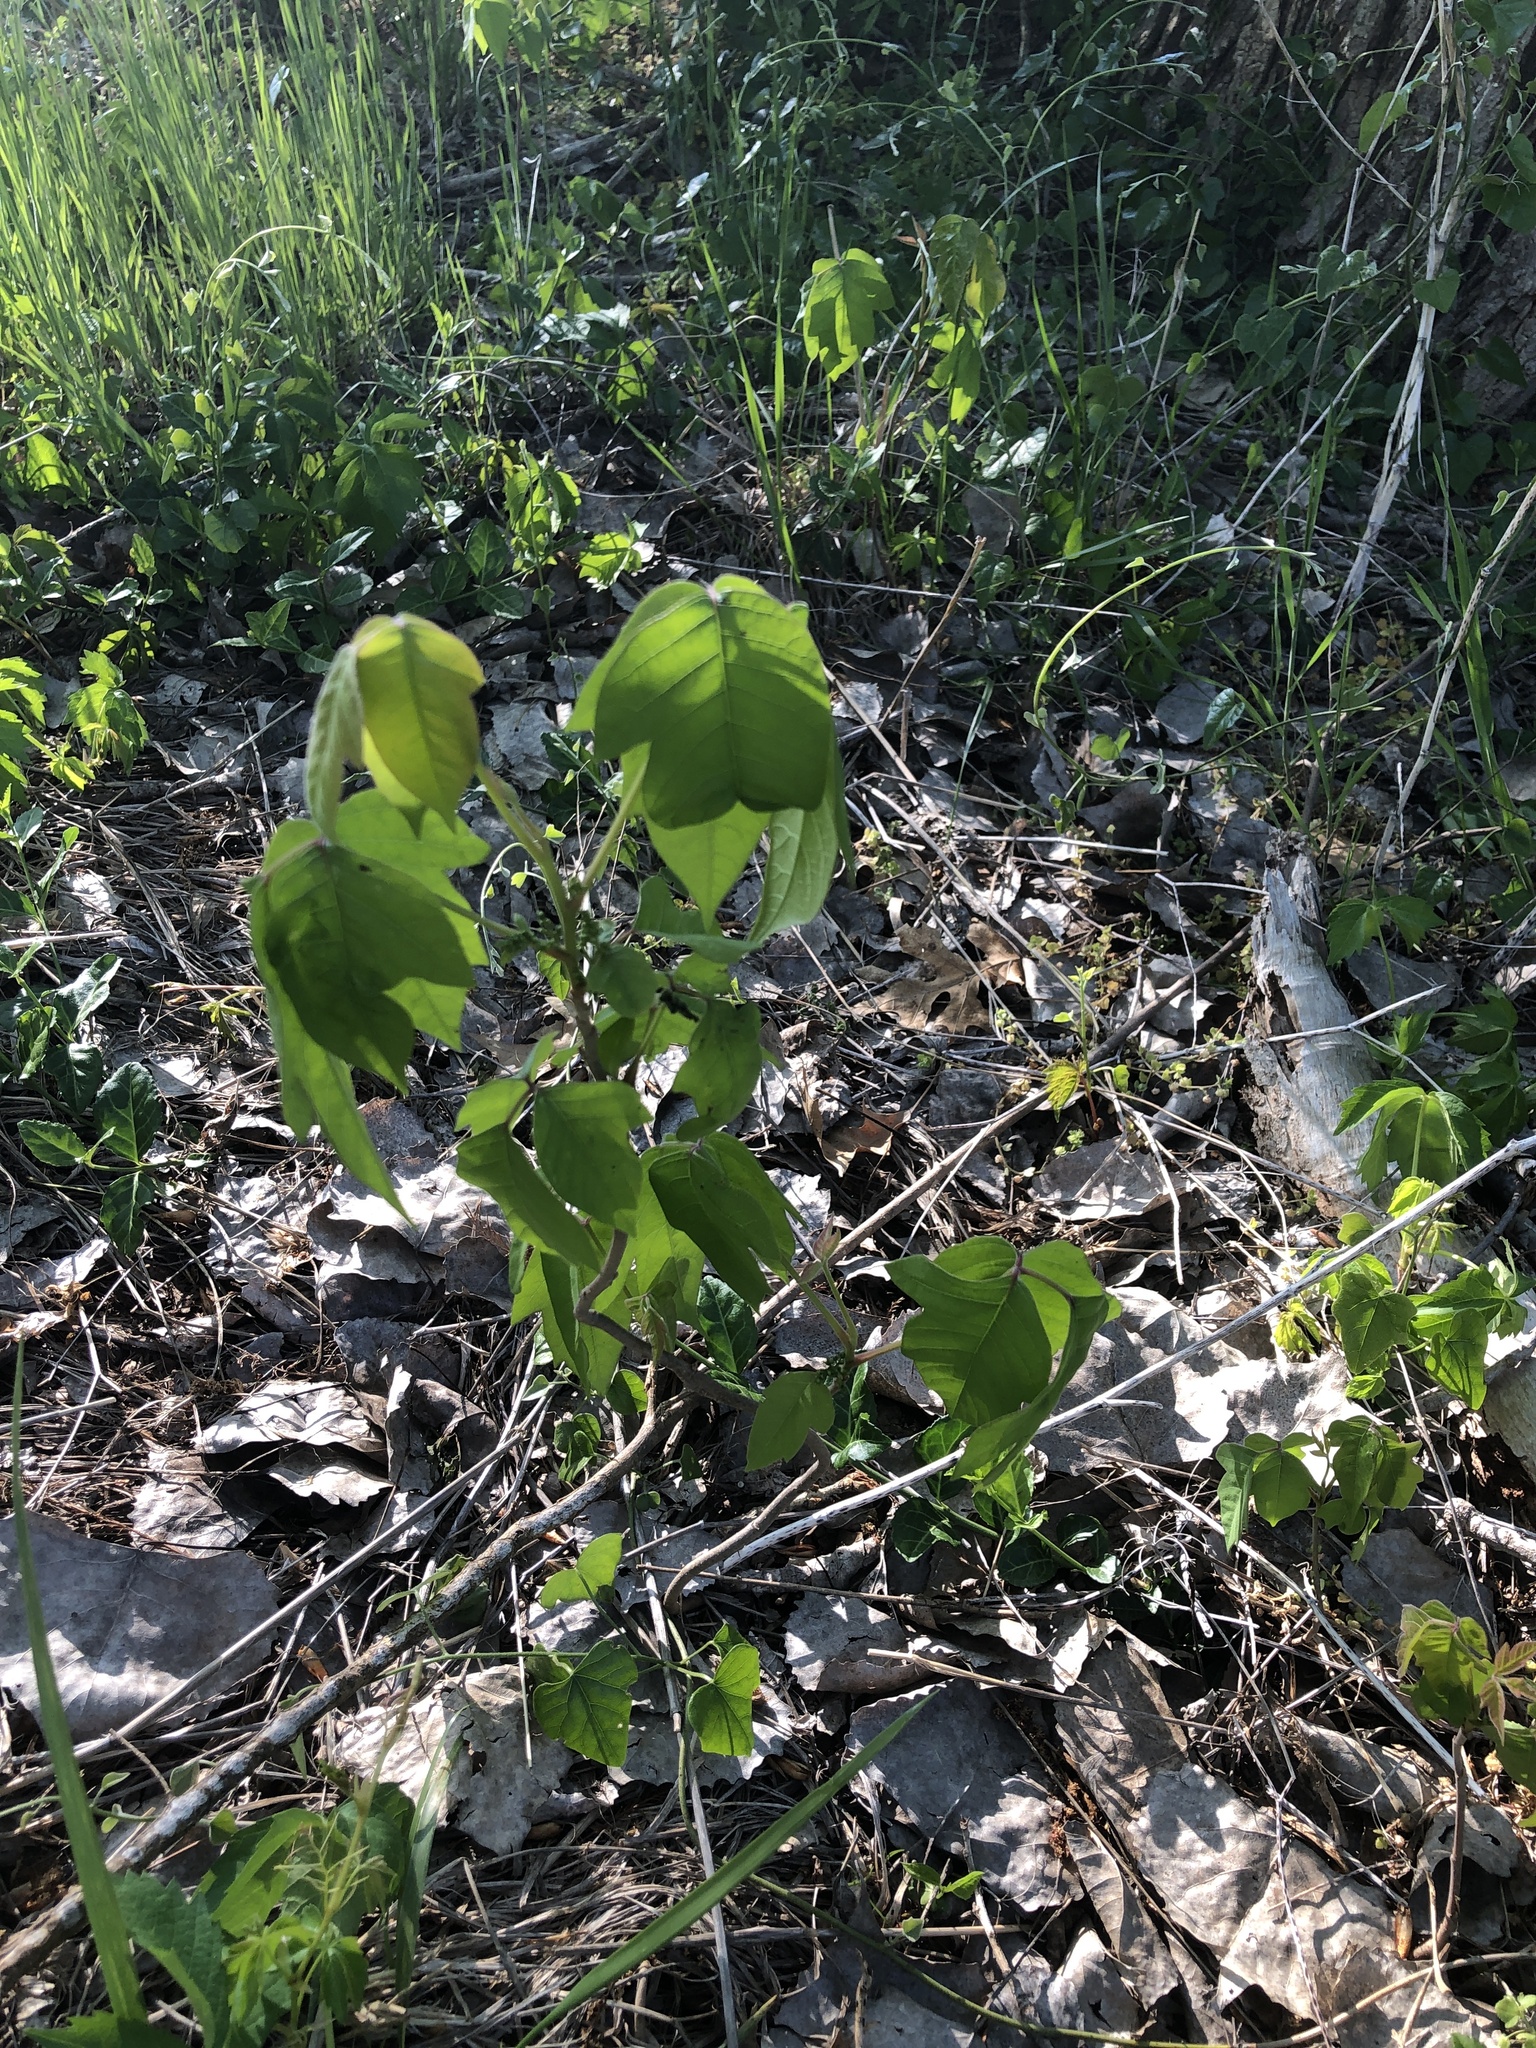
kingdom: Plantae
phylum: Tracheophyta
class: Magnoliopsida
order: Sapindales
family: Anacardiaceae
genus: Toxicodendron
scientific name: Toxicodendron radicans
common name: Poison ivy
